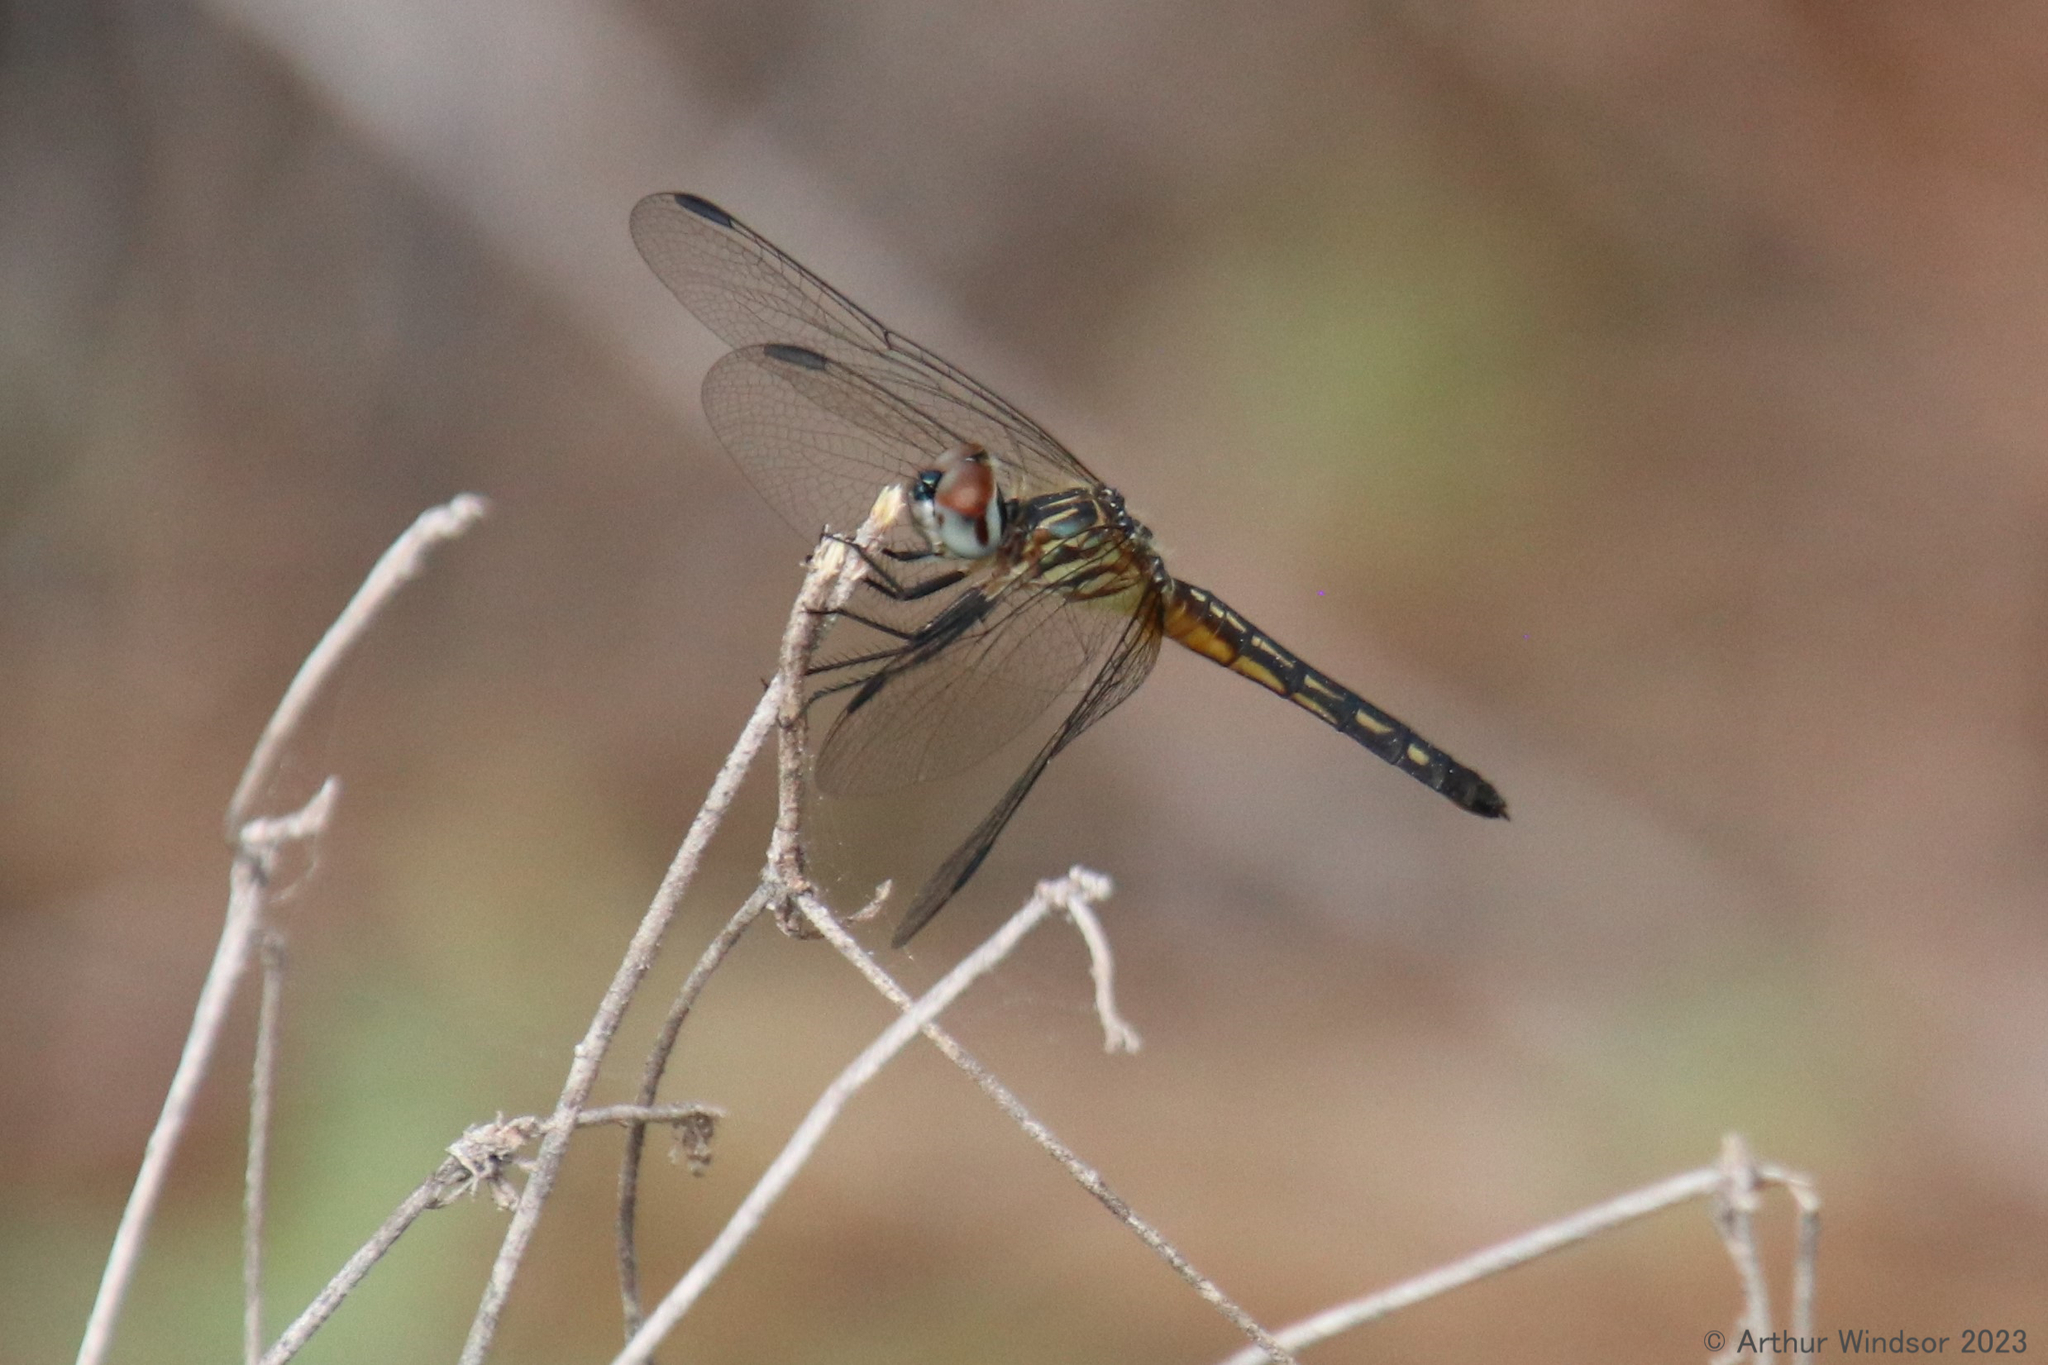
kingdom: Animalia
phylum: Arthropoda
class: Insecta
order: Odonata
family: Libellulidae
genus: Pachydiplax
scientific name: Pachydiplax longipennis
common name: Blue dasher
